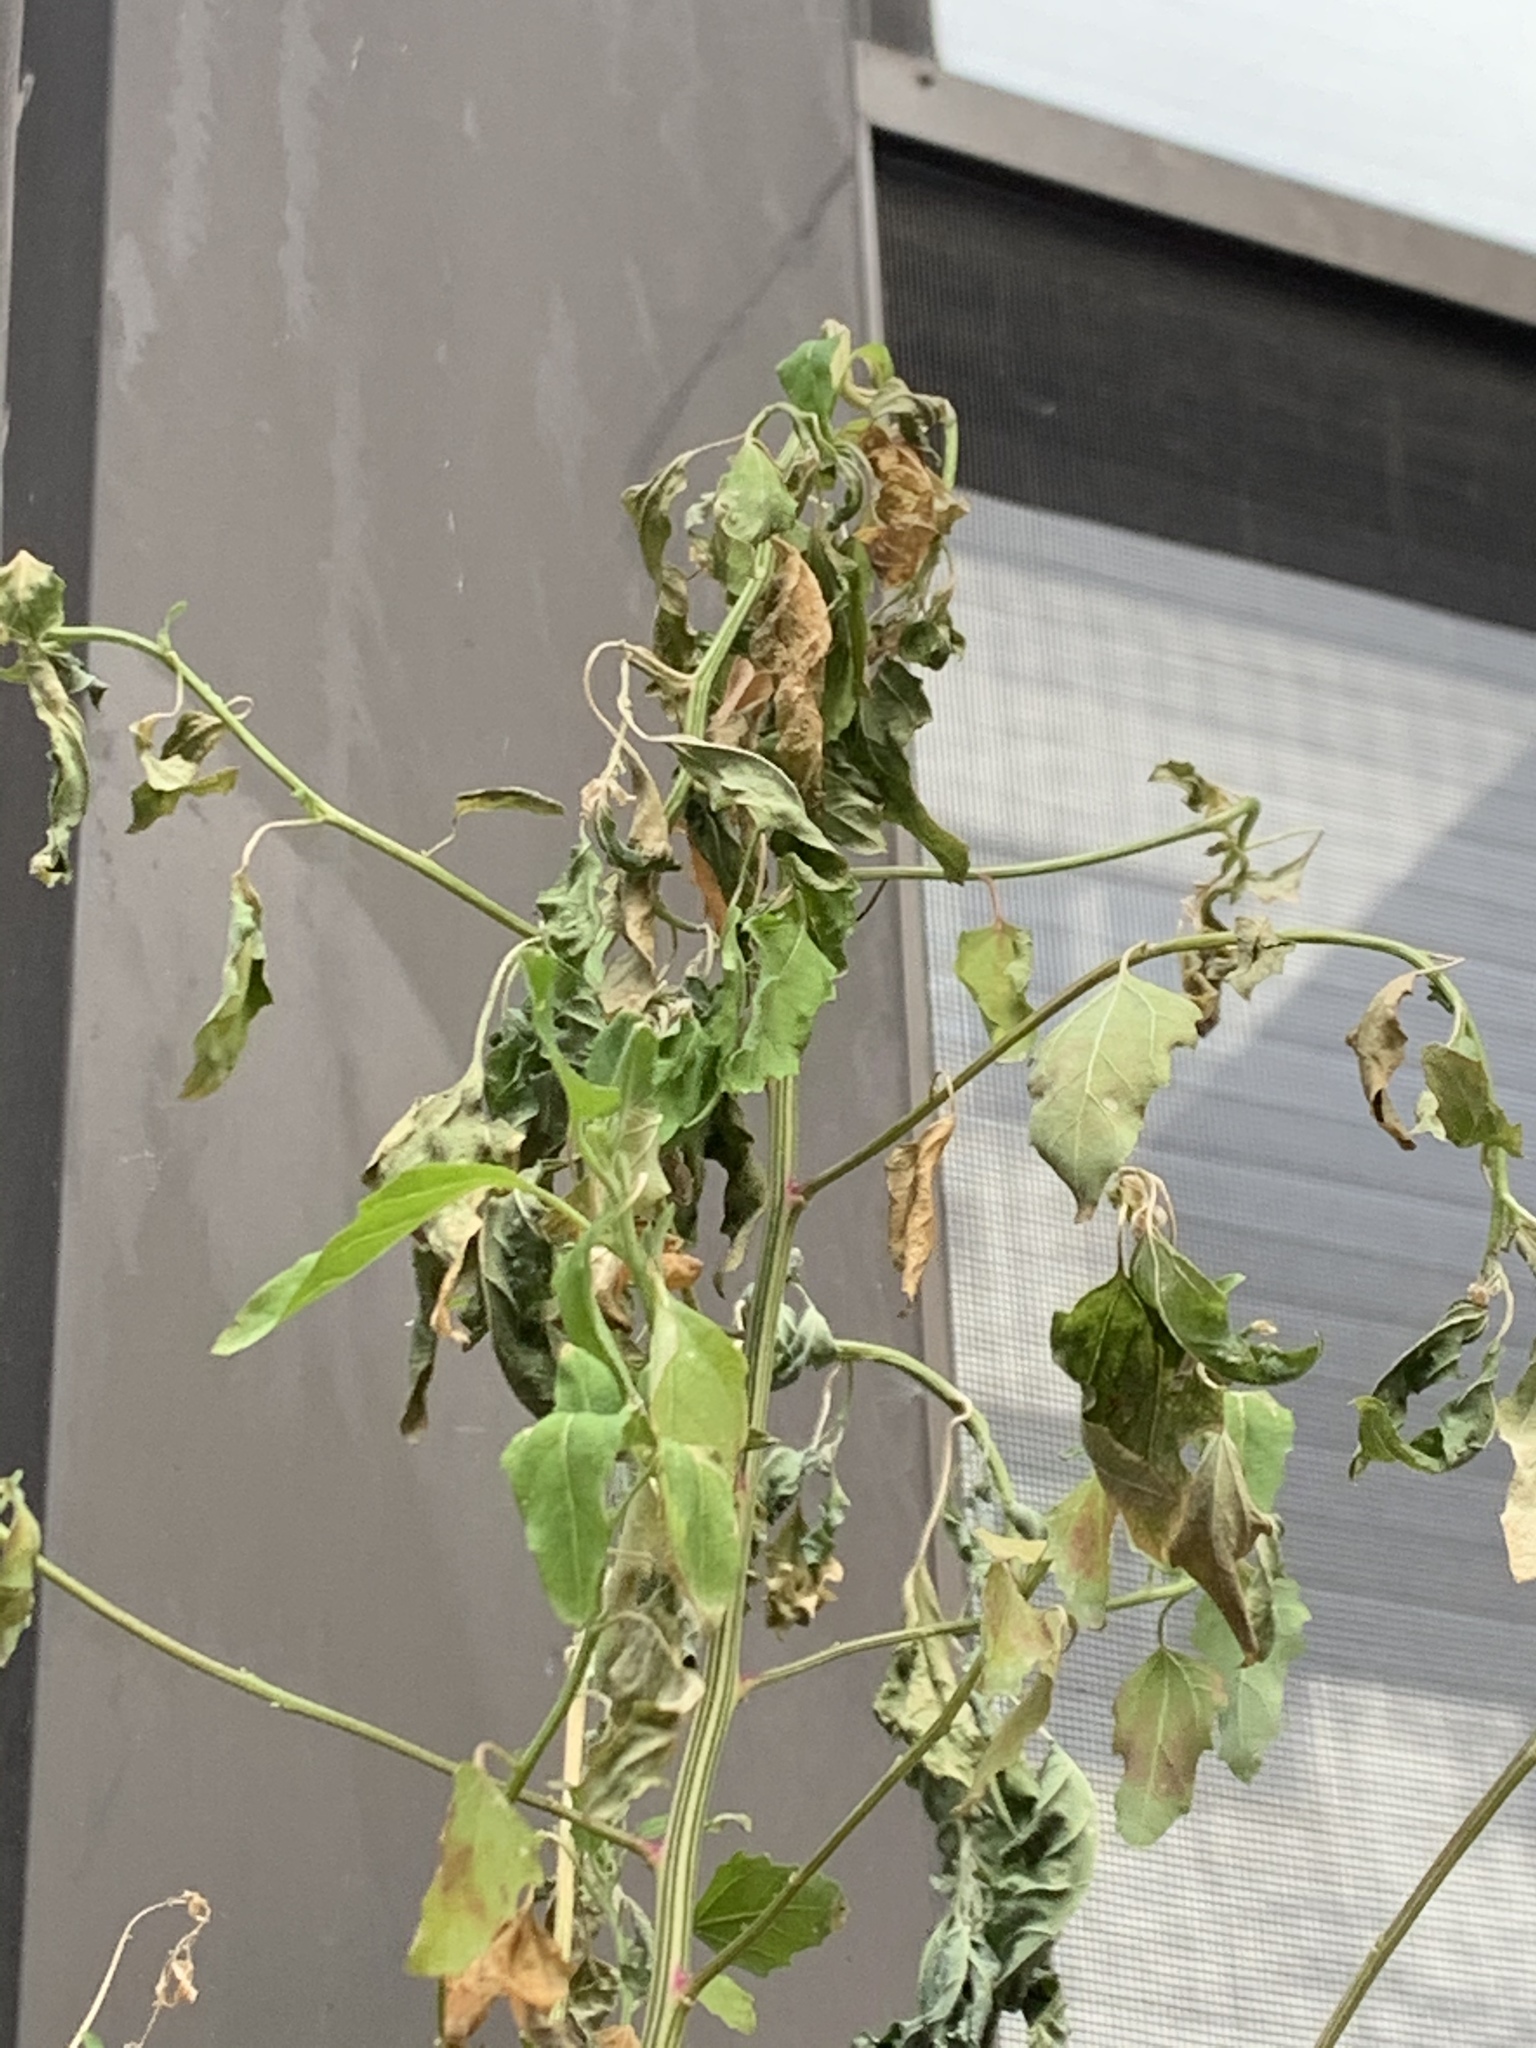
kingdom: Plantae
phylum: Tracheophyta
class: Magnoliopsida
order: Caryophyllales
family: Amaranthaceae
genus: Chenopodium
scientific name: Chenopodium album
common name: Fat-hen
